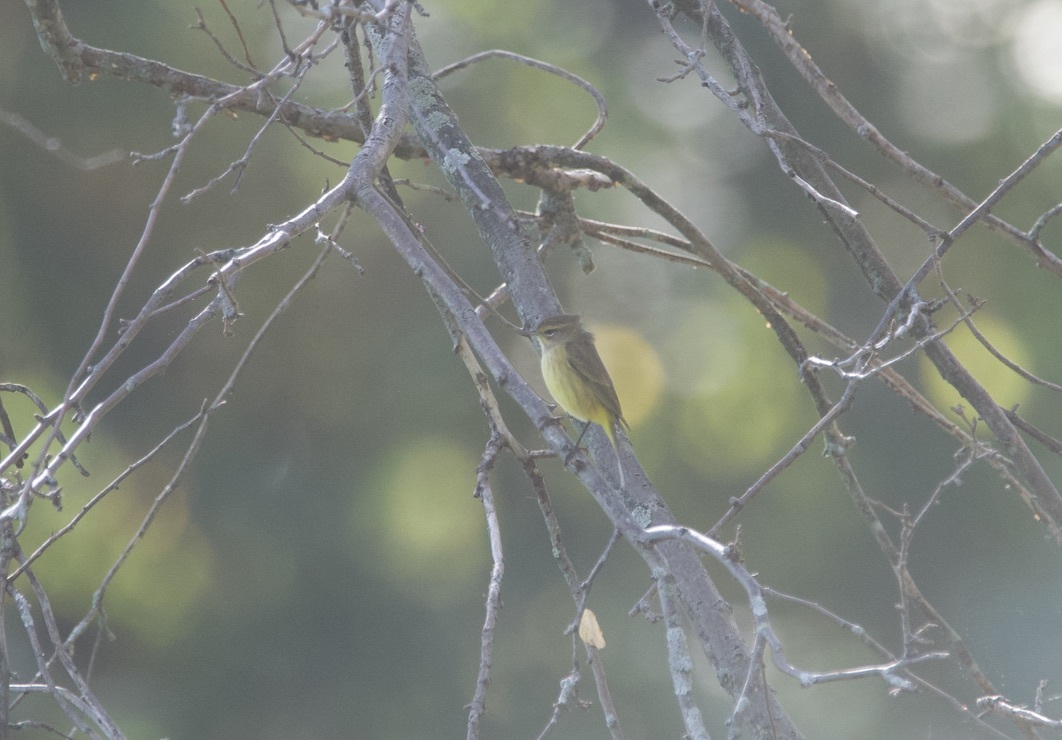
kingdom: Animalia
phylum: Chordata
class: Aves
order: Passeriformes
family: Parulidae
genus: Setophaga
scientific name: Setophaga palmarum
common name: Palm warbler
